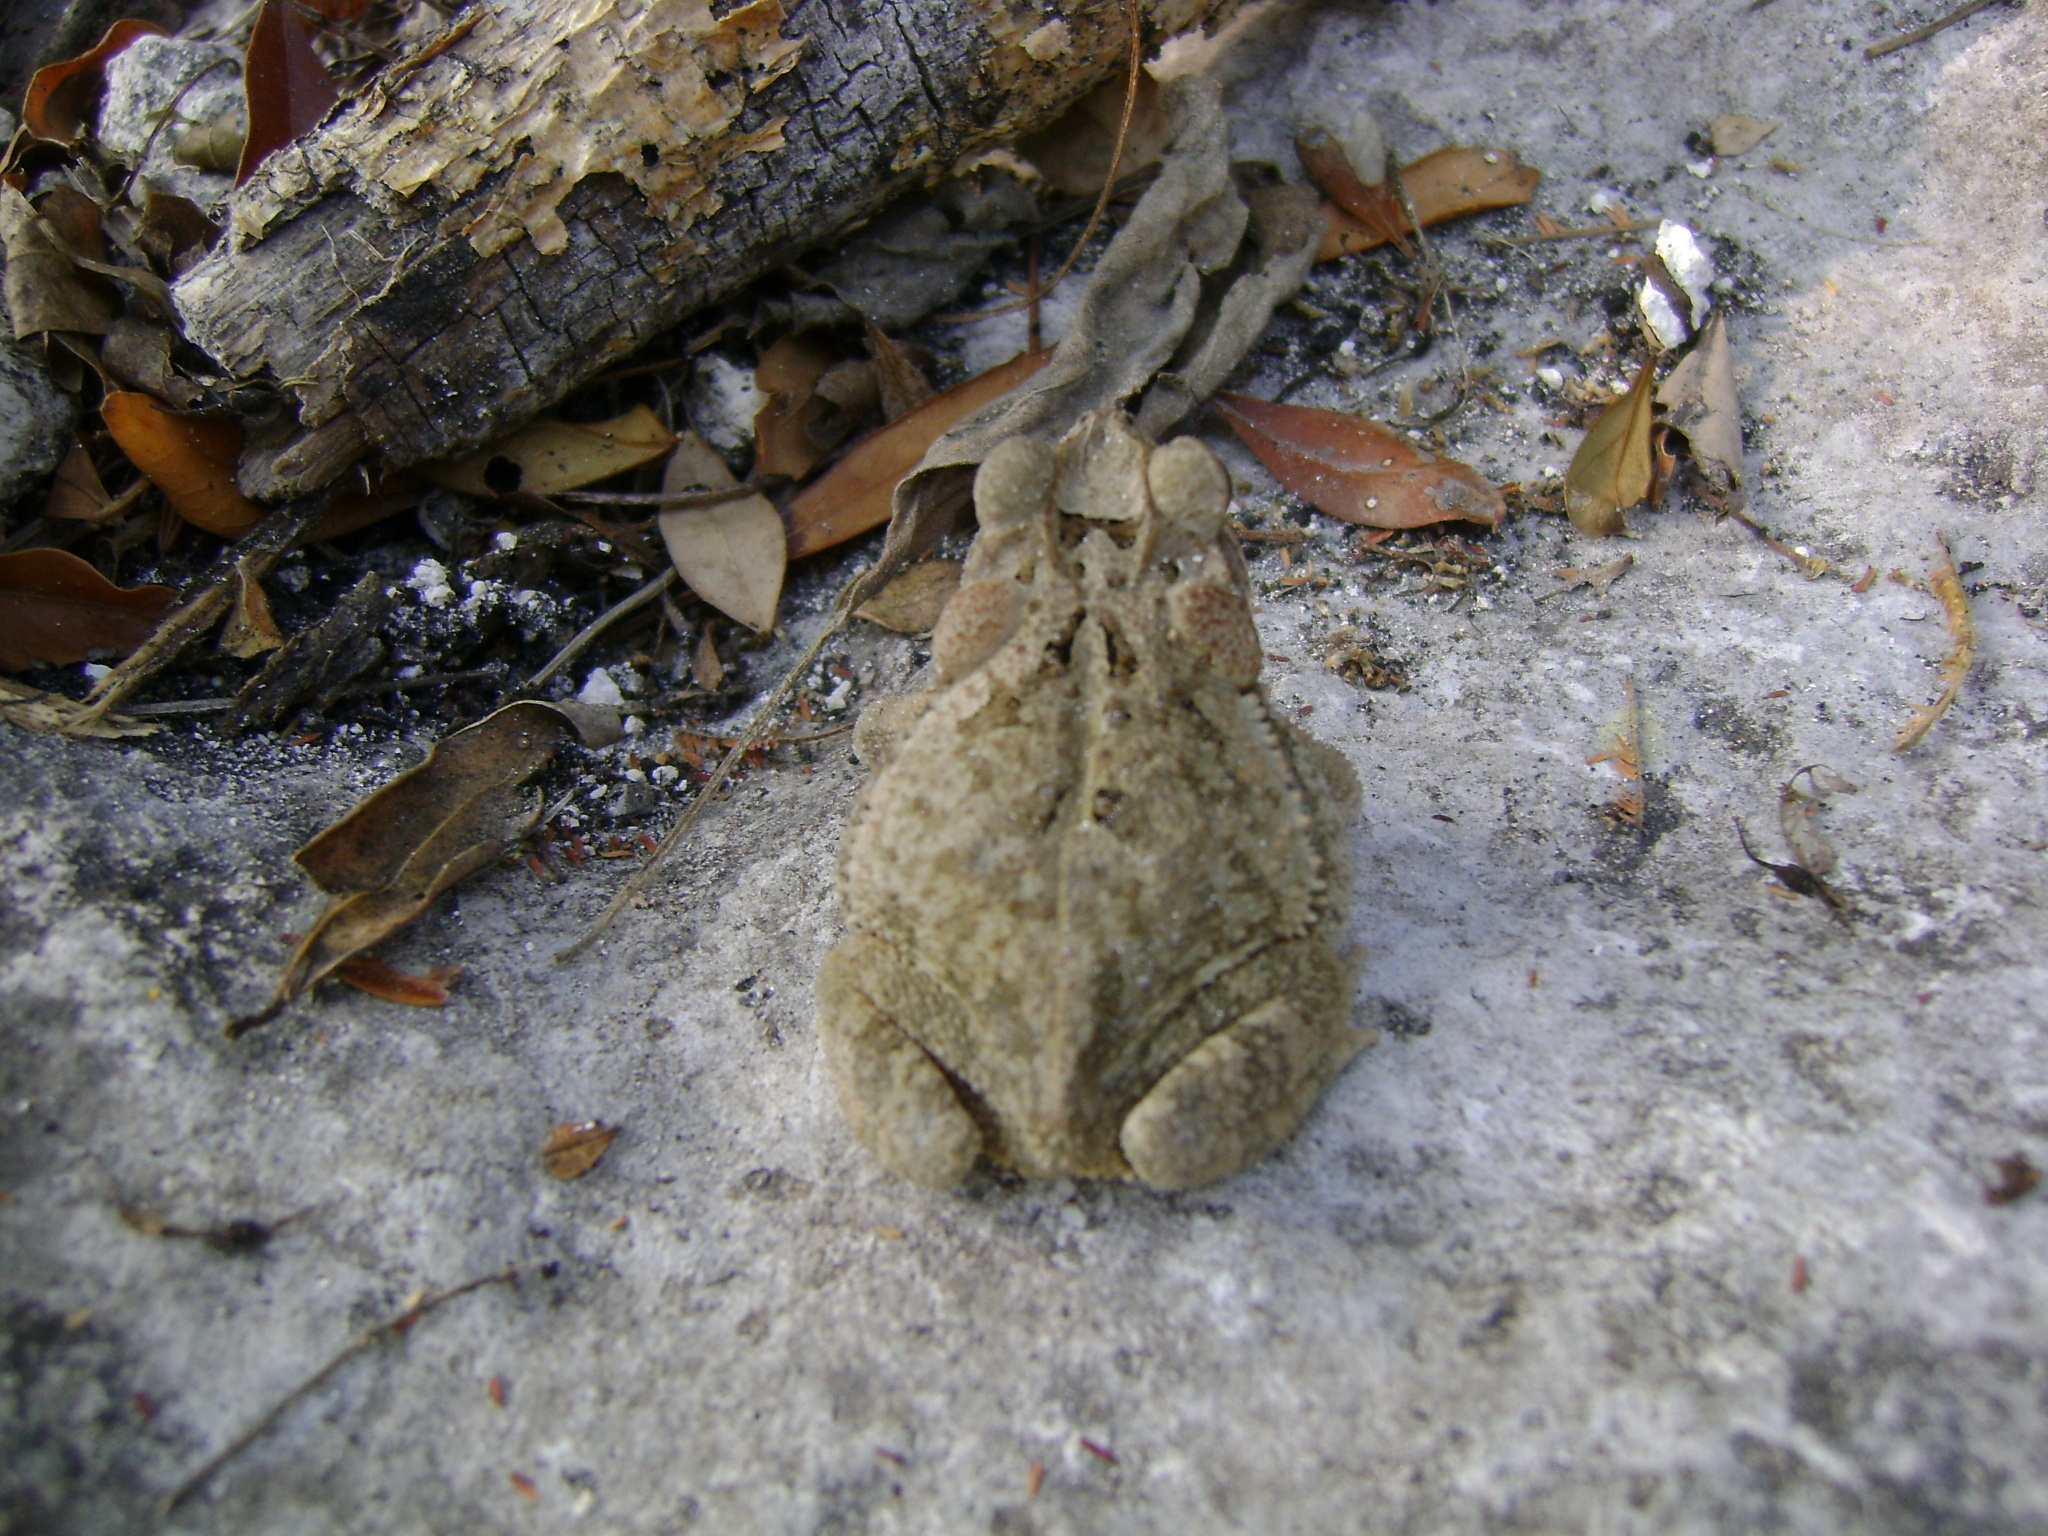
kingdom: Animalia
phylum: Chordata
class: Amphibia
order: Anura
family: Bufonidae
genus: Incilius
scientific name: Incilius valliceps
